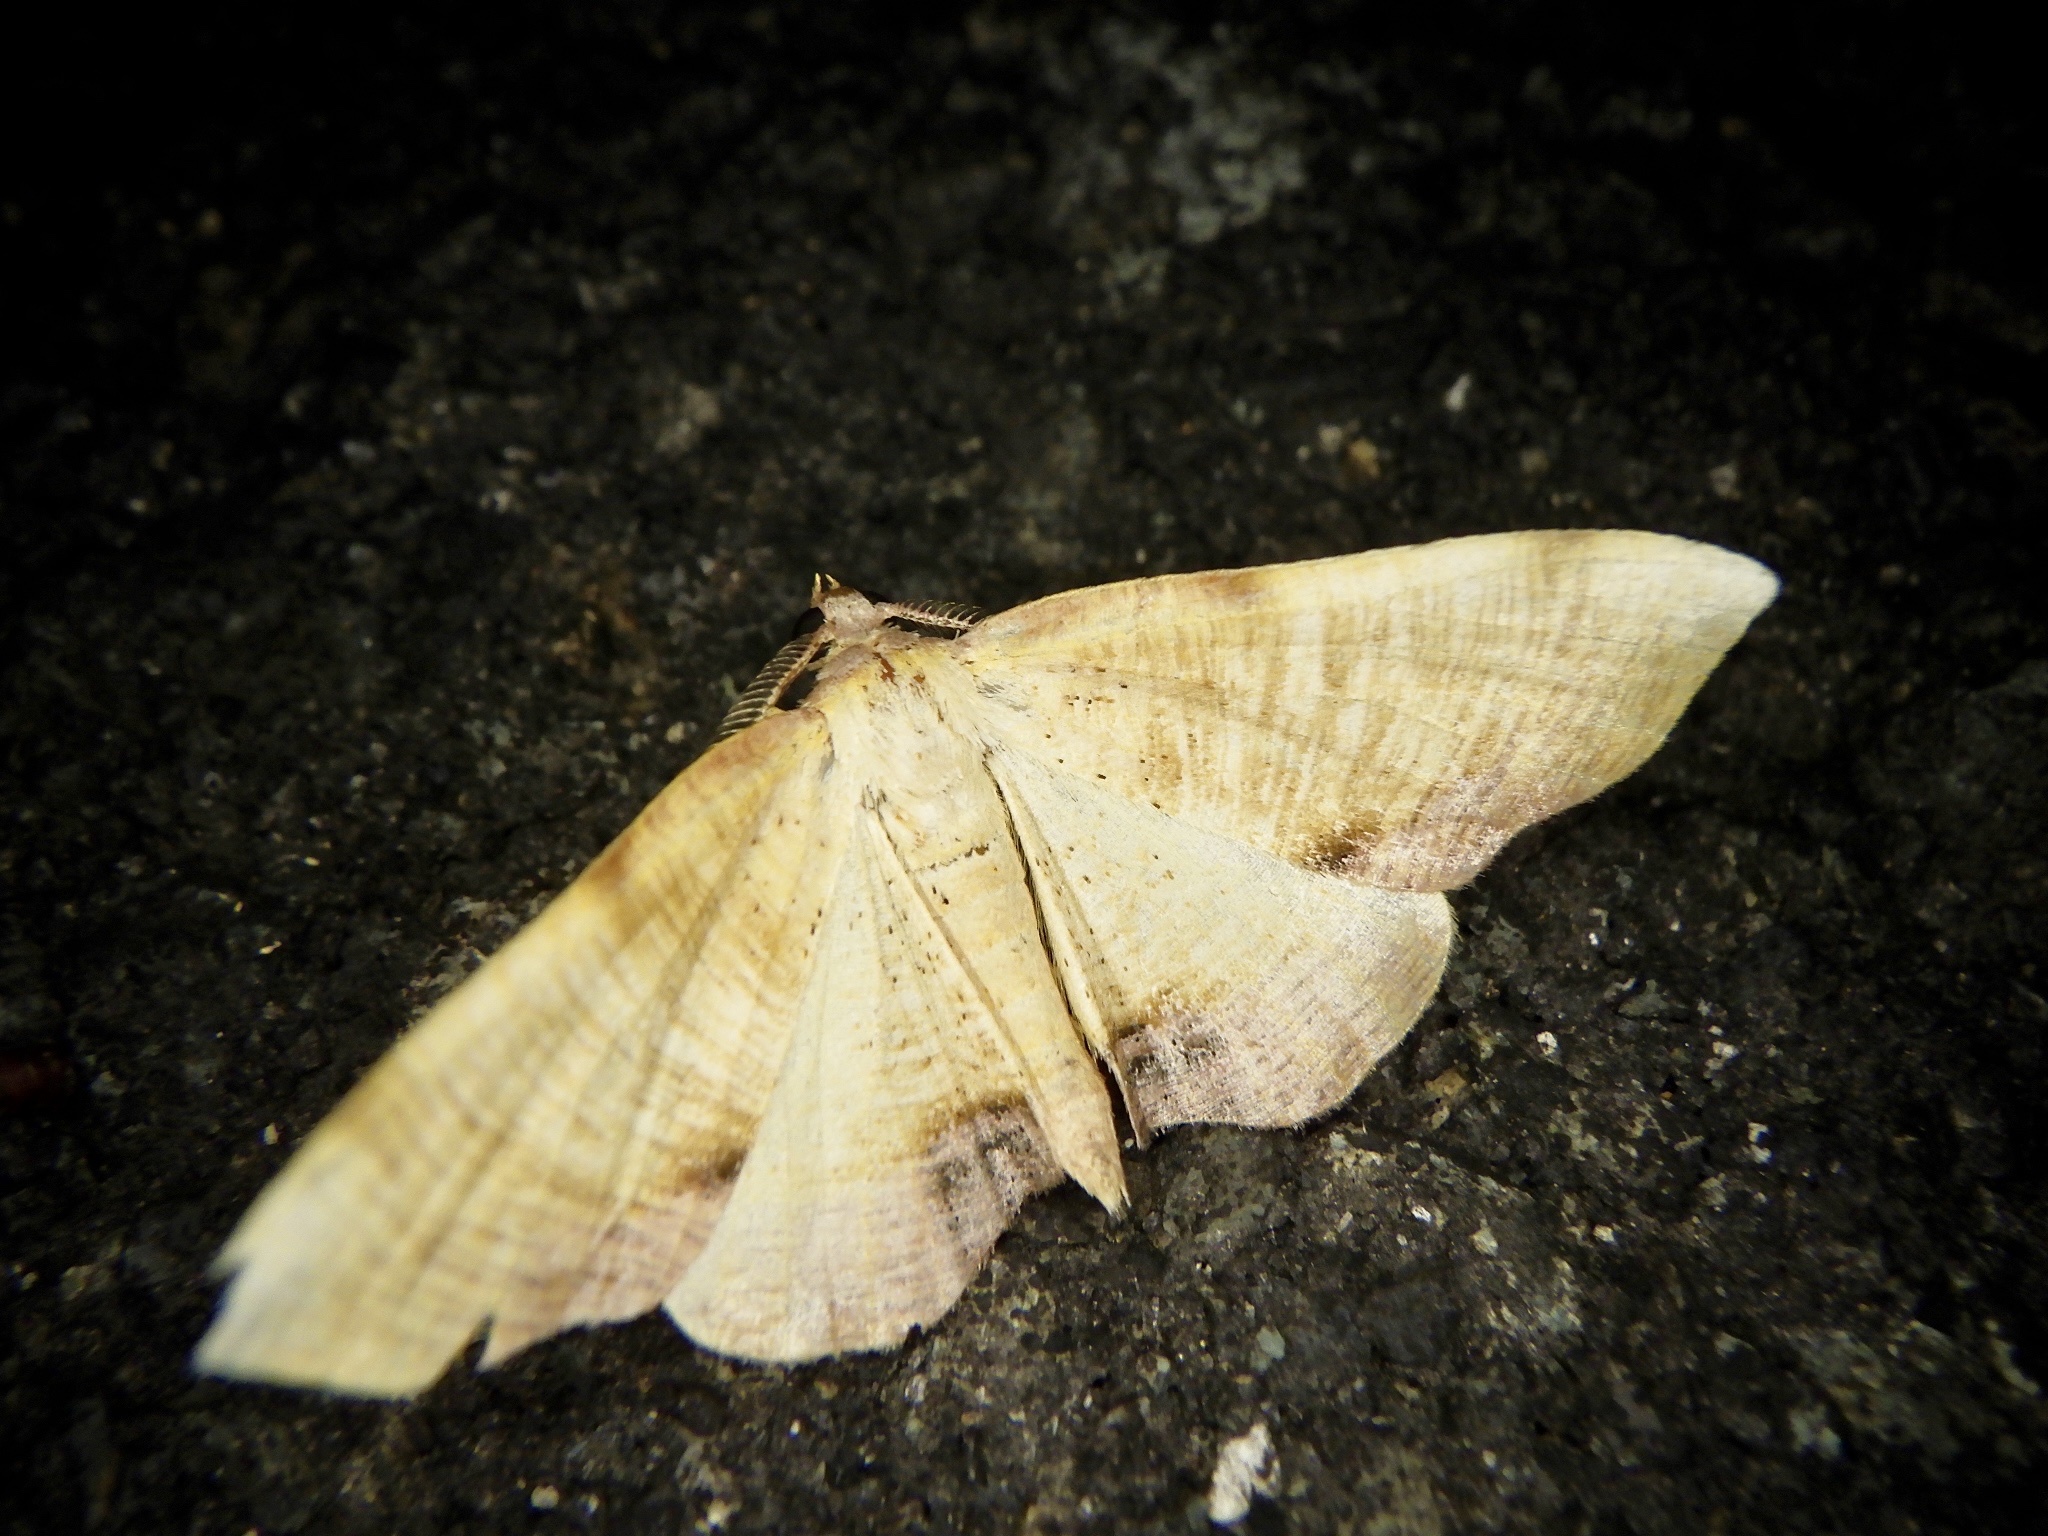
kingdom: Animalia
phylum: Arthropoda
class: Insecta
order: Lepidoptera
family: Geometridae
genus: Plagodis
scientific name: Plagodis dolabraria
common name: Scorched wing
